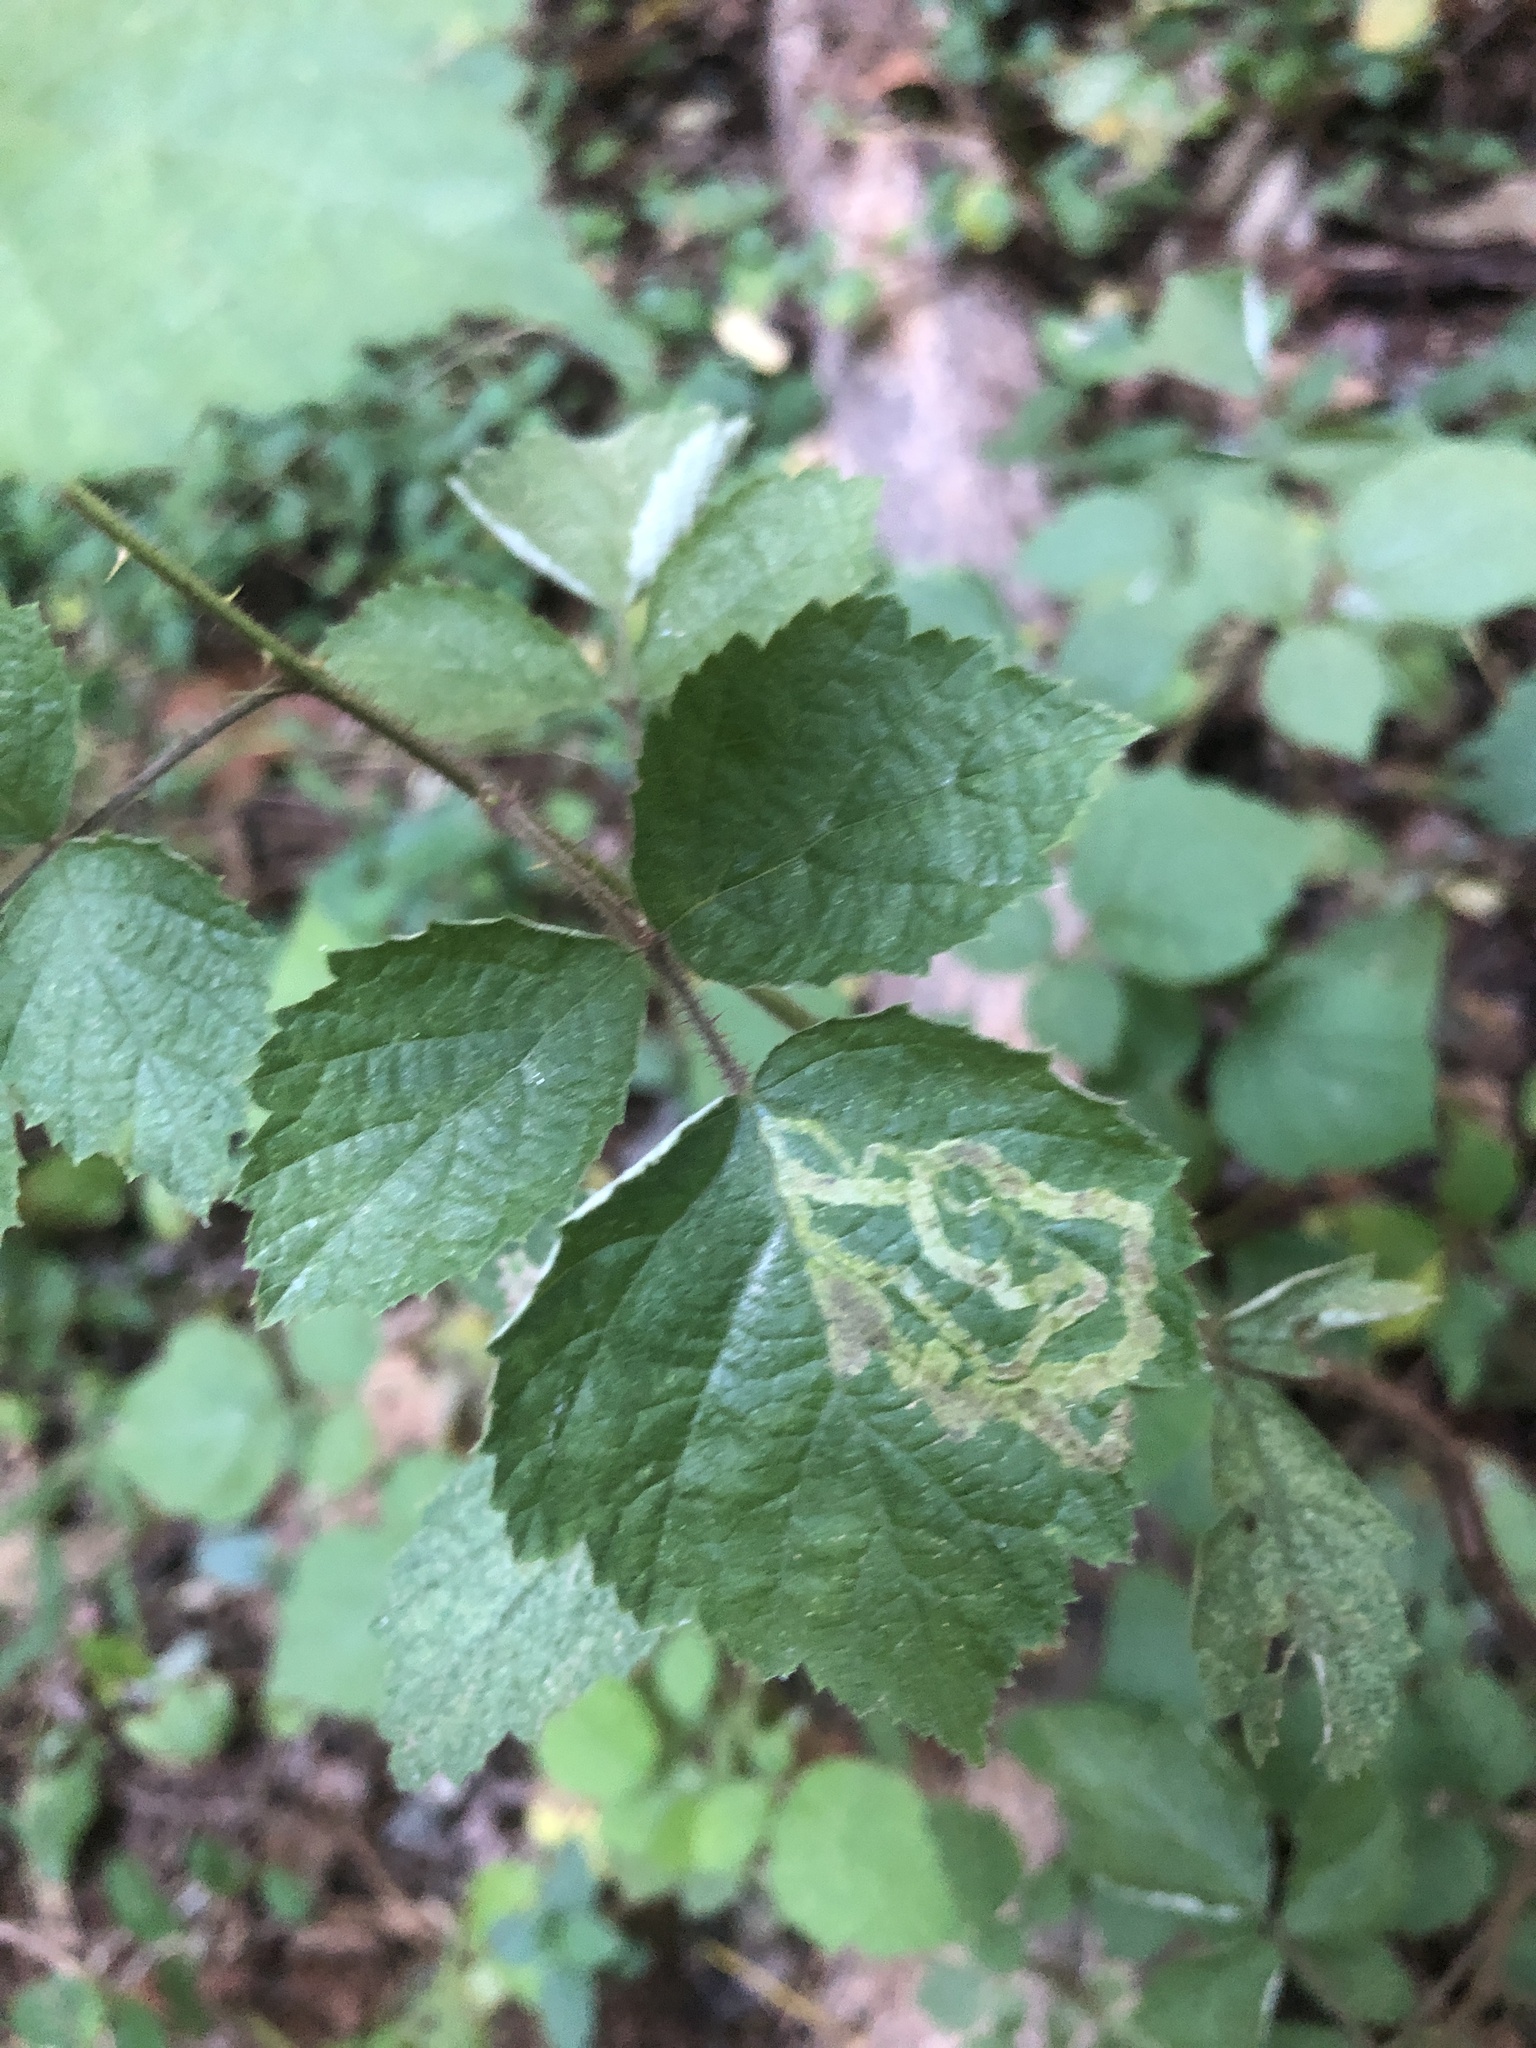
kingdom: Animalia
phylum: Arthropoda
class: Insecta
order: Diptera
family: Agromyzidae
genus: Agromyza
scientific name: Agromyza vockerothi
